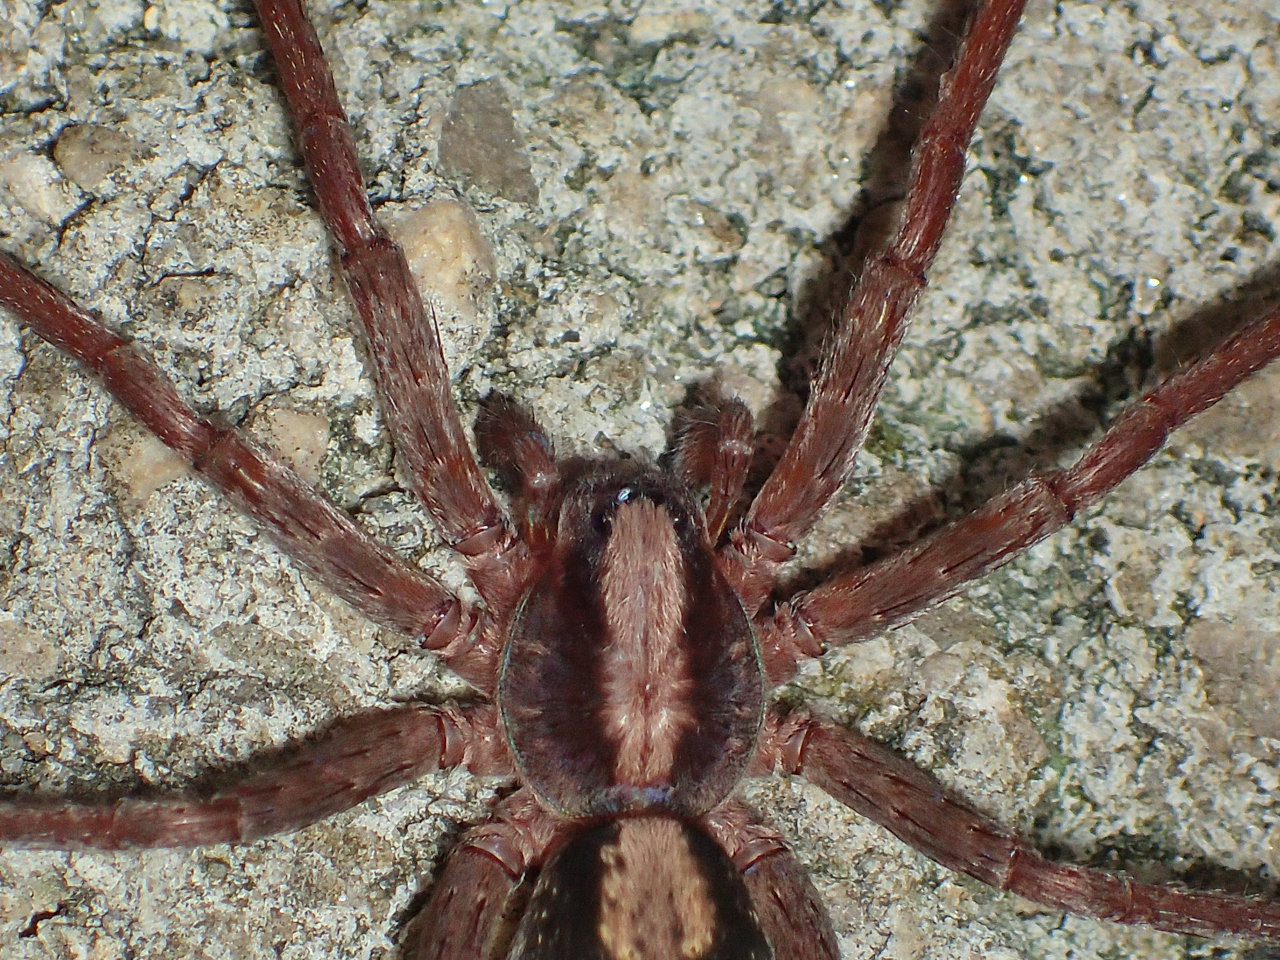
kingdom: Animalia
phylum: Arthropoda
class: Arachnida
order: Araneae
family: Ctenidae
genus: Ctenus
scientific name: Ctenus hibernalis
